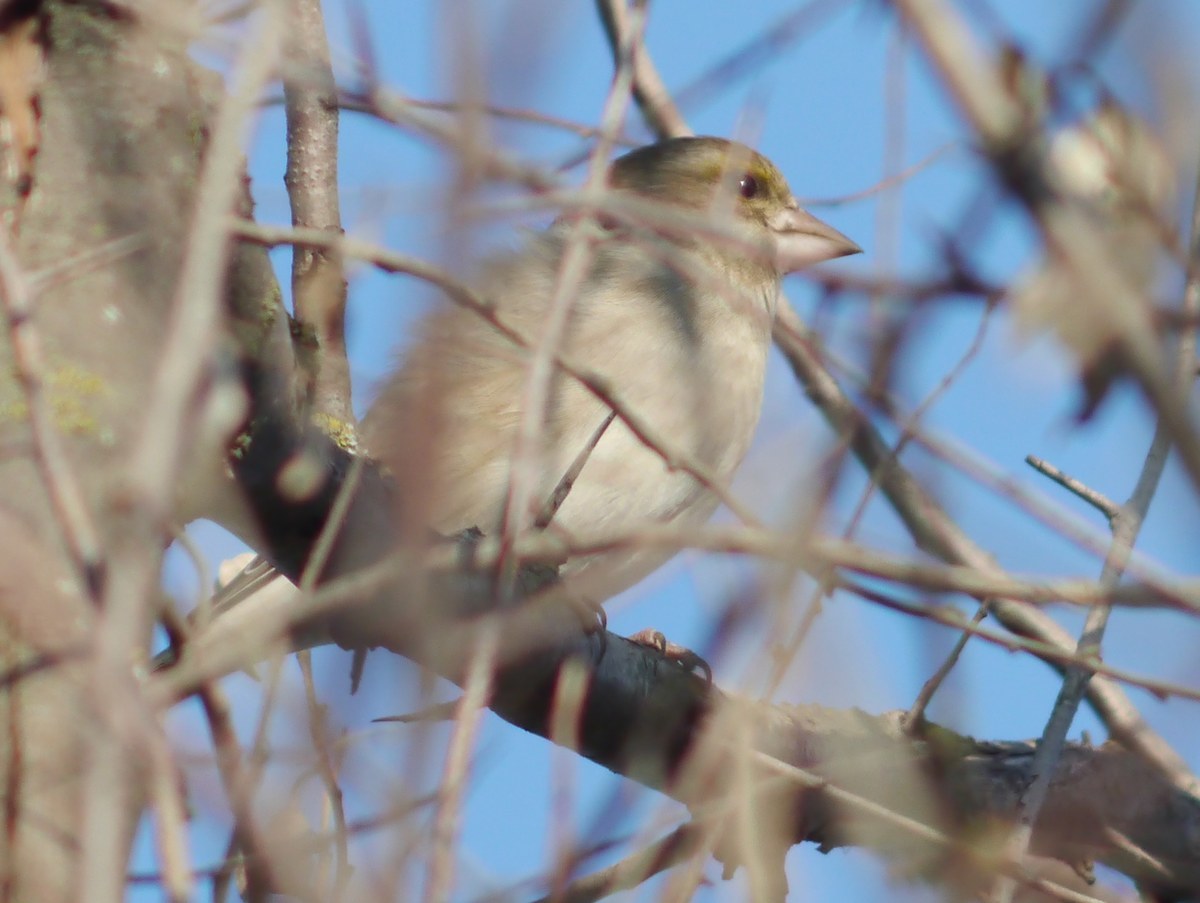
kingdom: Animalia
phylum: Chordata
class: Aves
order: Passeriformes
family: Fringillidae
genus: Fringilla
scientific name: Fringilla coelebs
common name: Common chaffinch
